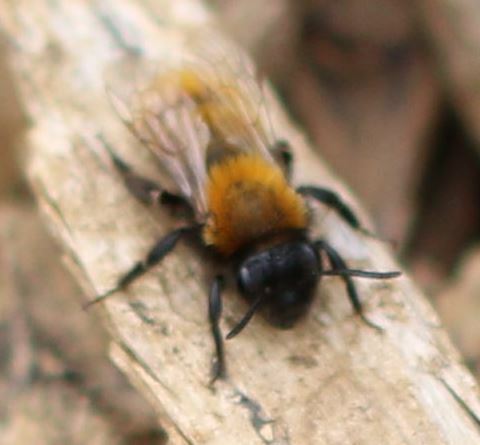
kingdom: Animalia
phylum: Arthropoda
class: Insecta
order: Hymenoptera
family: Andrenidae
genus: Andrena
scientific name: Andrena fulva
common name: Tawny mining bee
